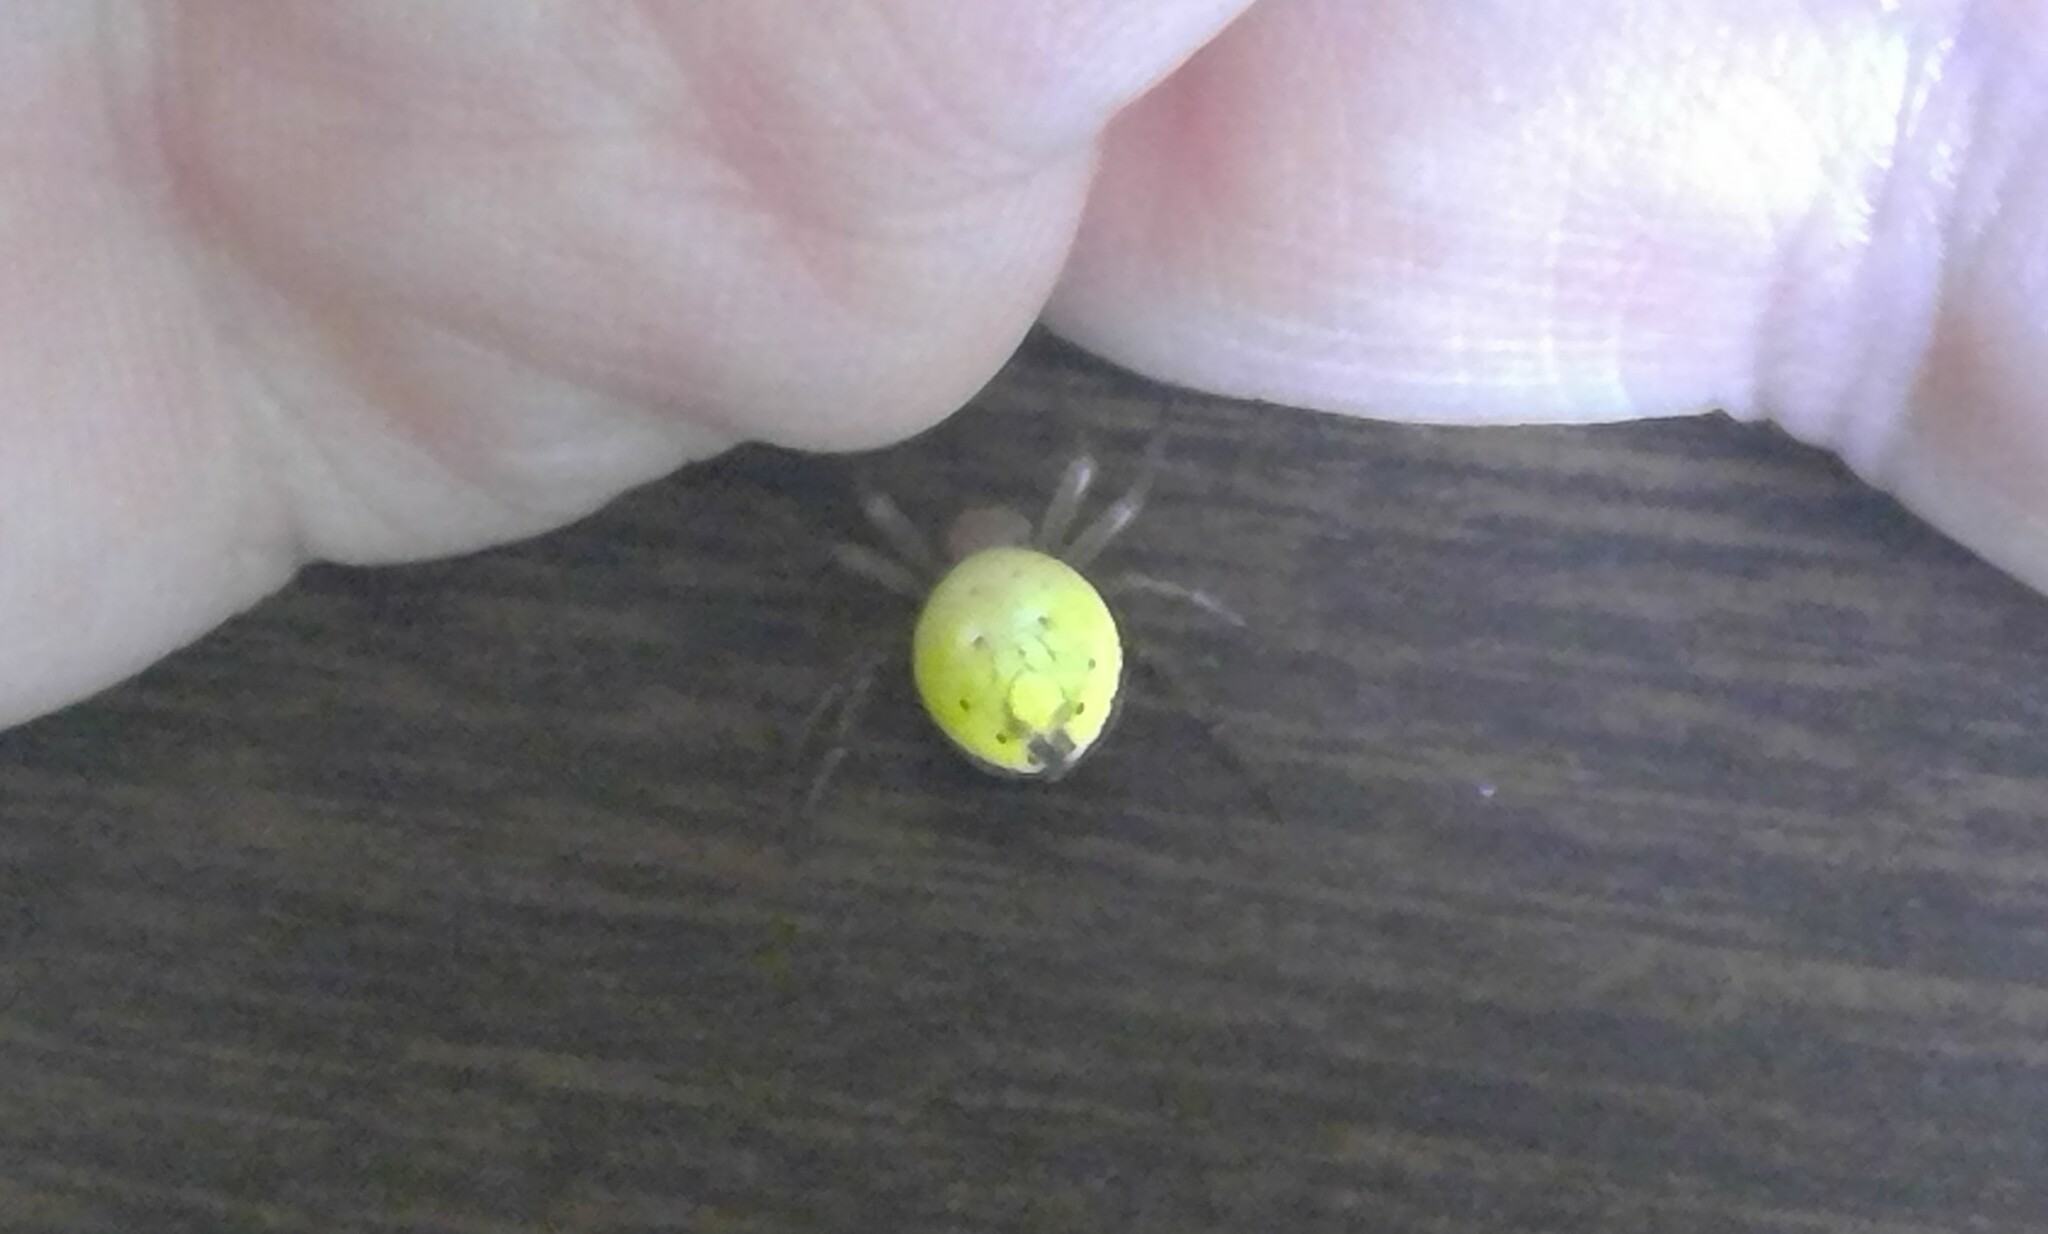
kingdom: Animalia
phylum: Arthropoda
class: Arachnida
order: Araneae
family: Araneidae
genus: Araniella
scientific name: Araniella displicata
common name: Sixspotted orb weaver
